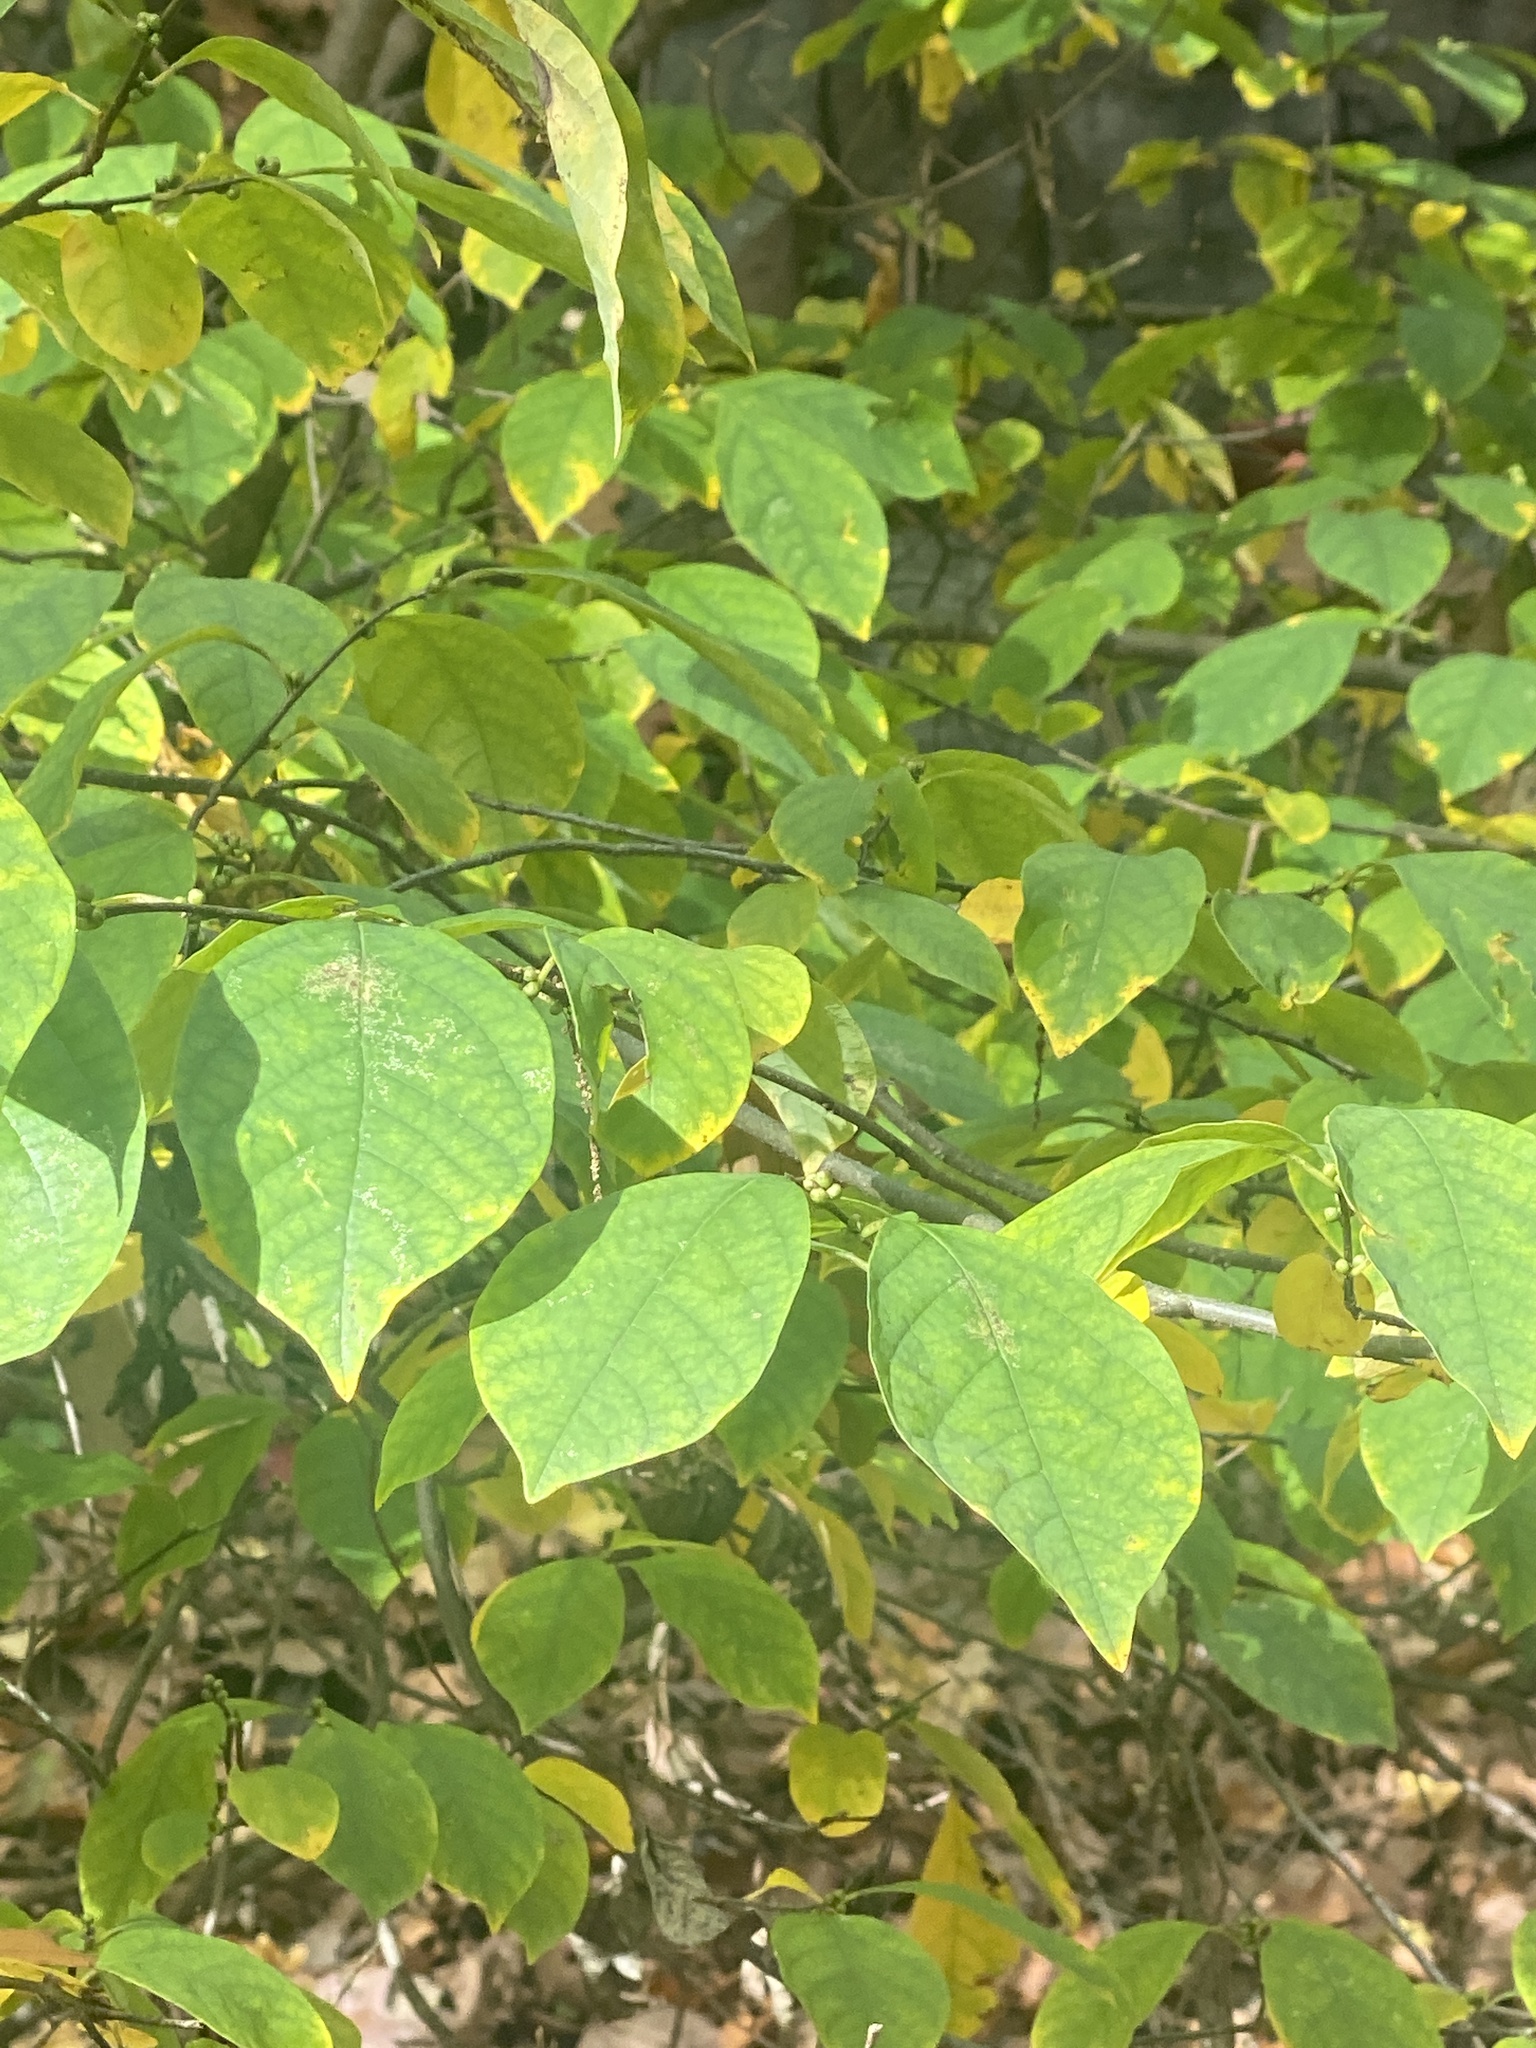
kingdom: Plantae
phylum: Tracheophyta
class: Magnoliopsida
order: Laurales
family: Lauraceae
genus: Lindera
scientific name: Lindera benzoin
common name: Spicebush
